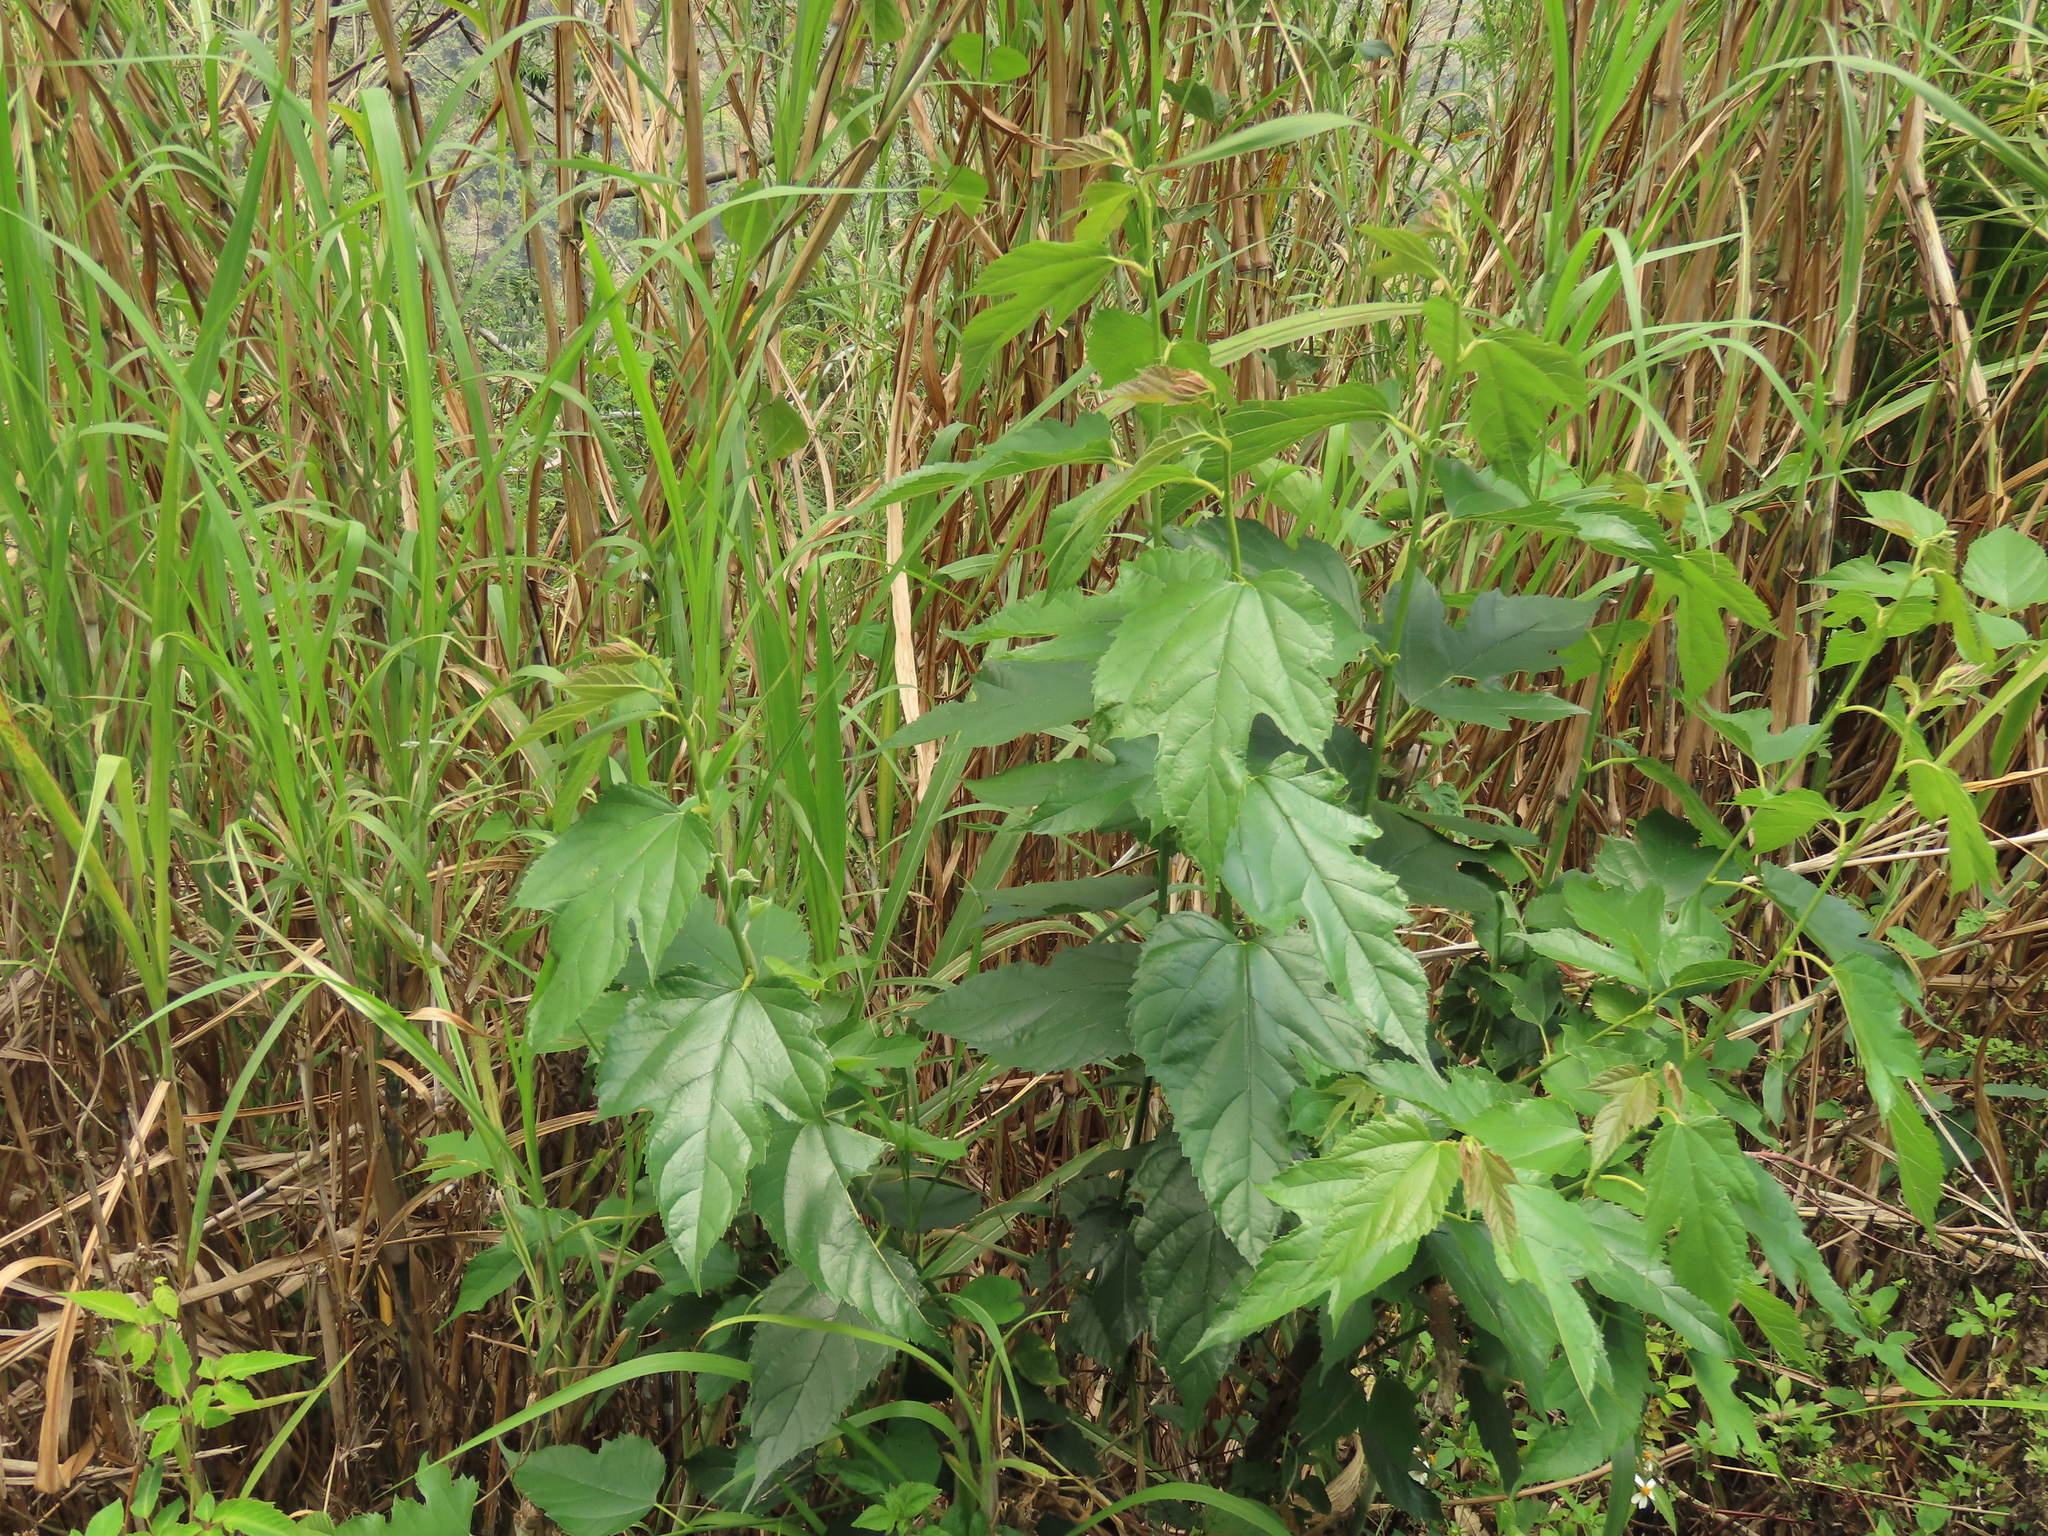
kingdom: Plantae
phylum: Tracheophyta
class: Magnoliopsida
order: Rosales
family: Moraceae
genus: Morus
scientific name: Morus indica
